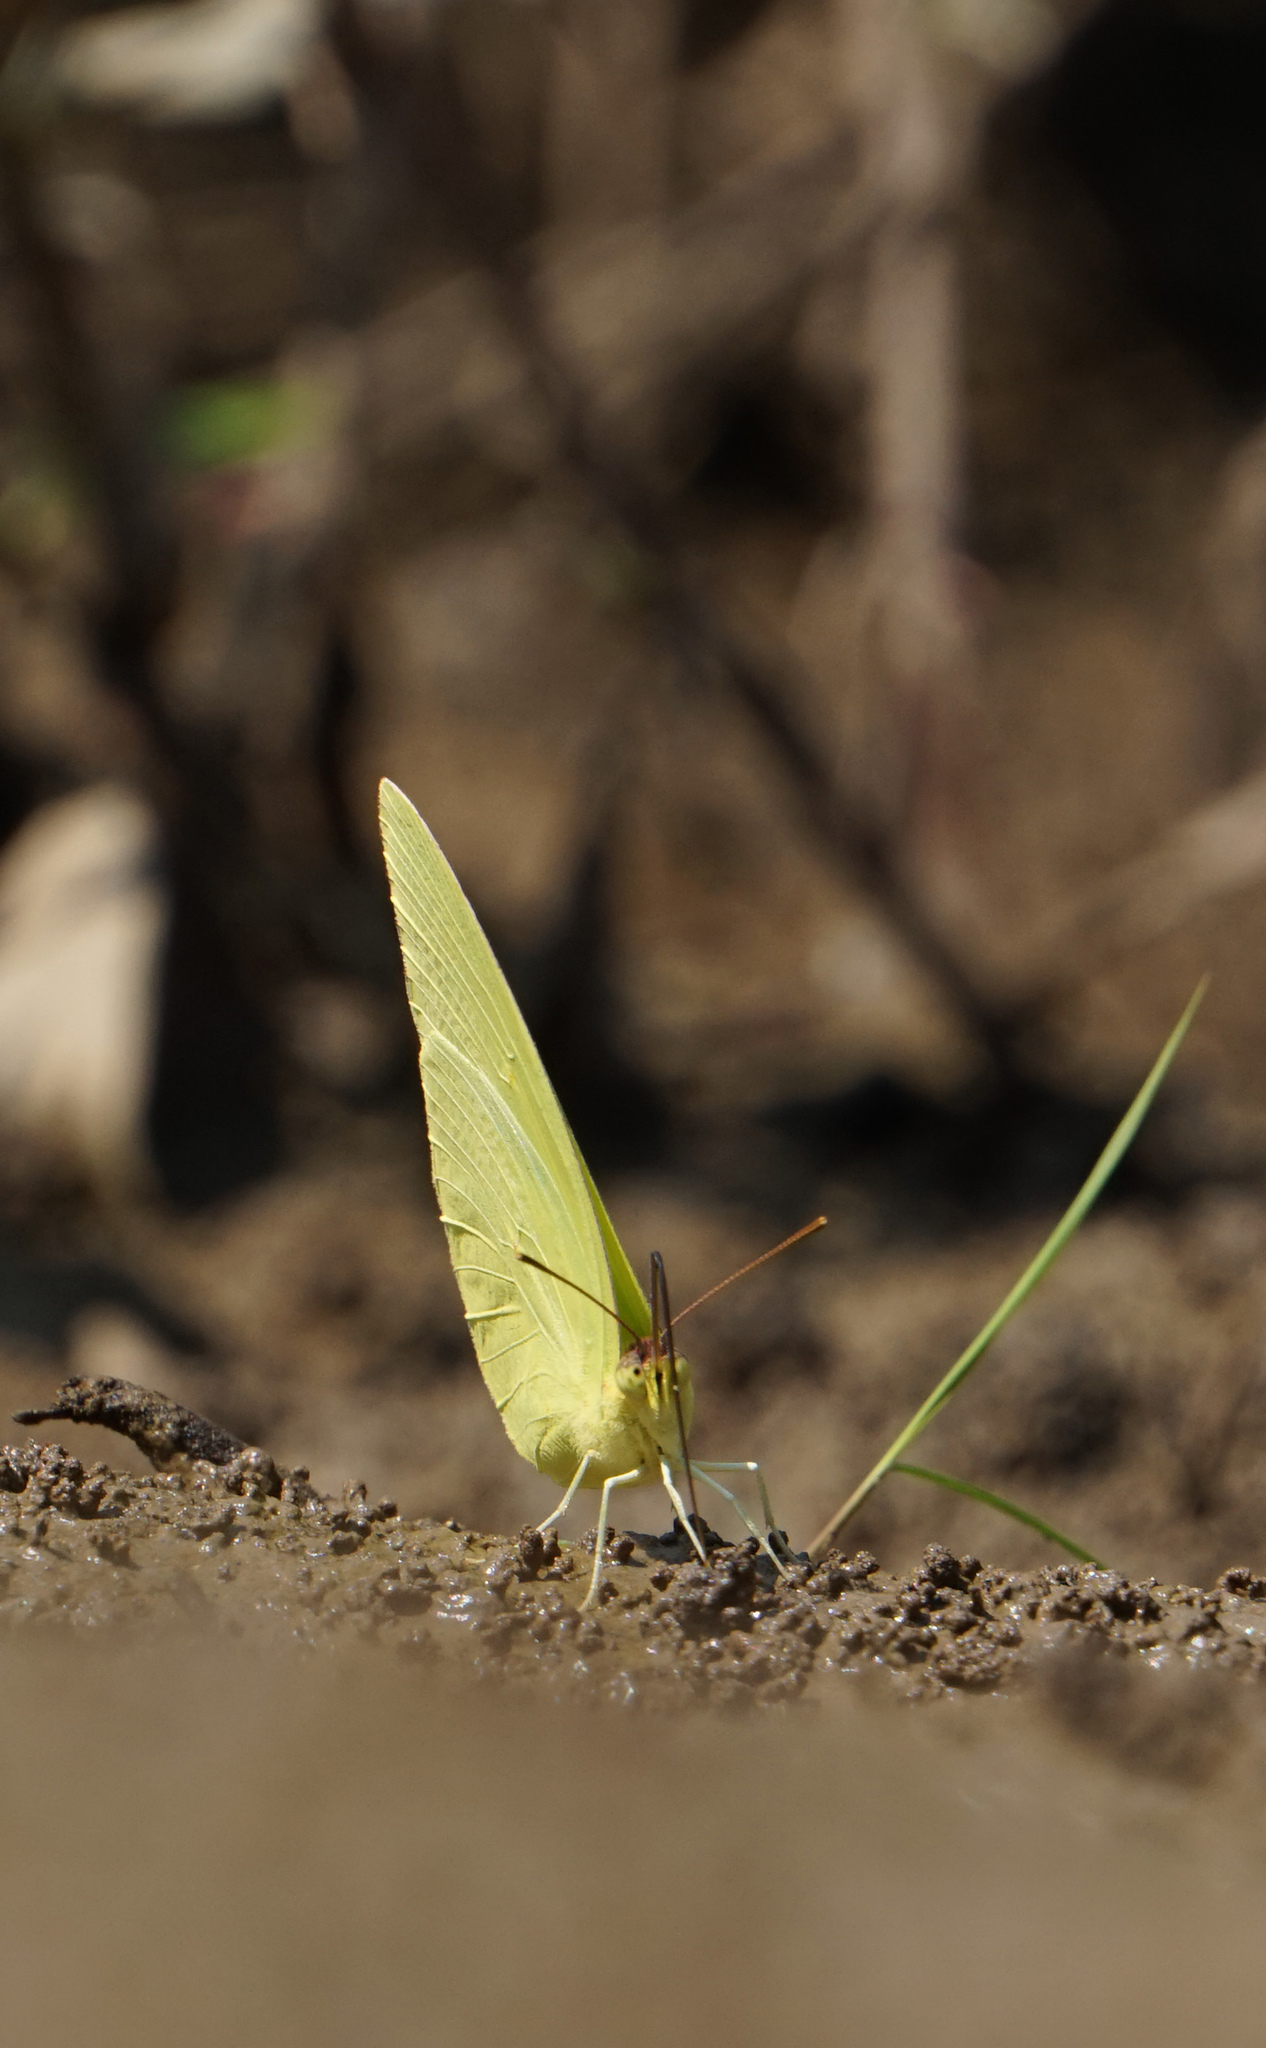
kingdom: Animalia
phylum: Arthropoda
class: Insecta
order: Lepidoptera
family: Pieridae
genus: Phoebis
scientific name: Phoebis sennae
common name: Cloudless sulphur
